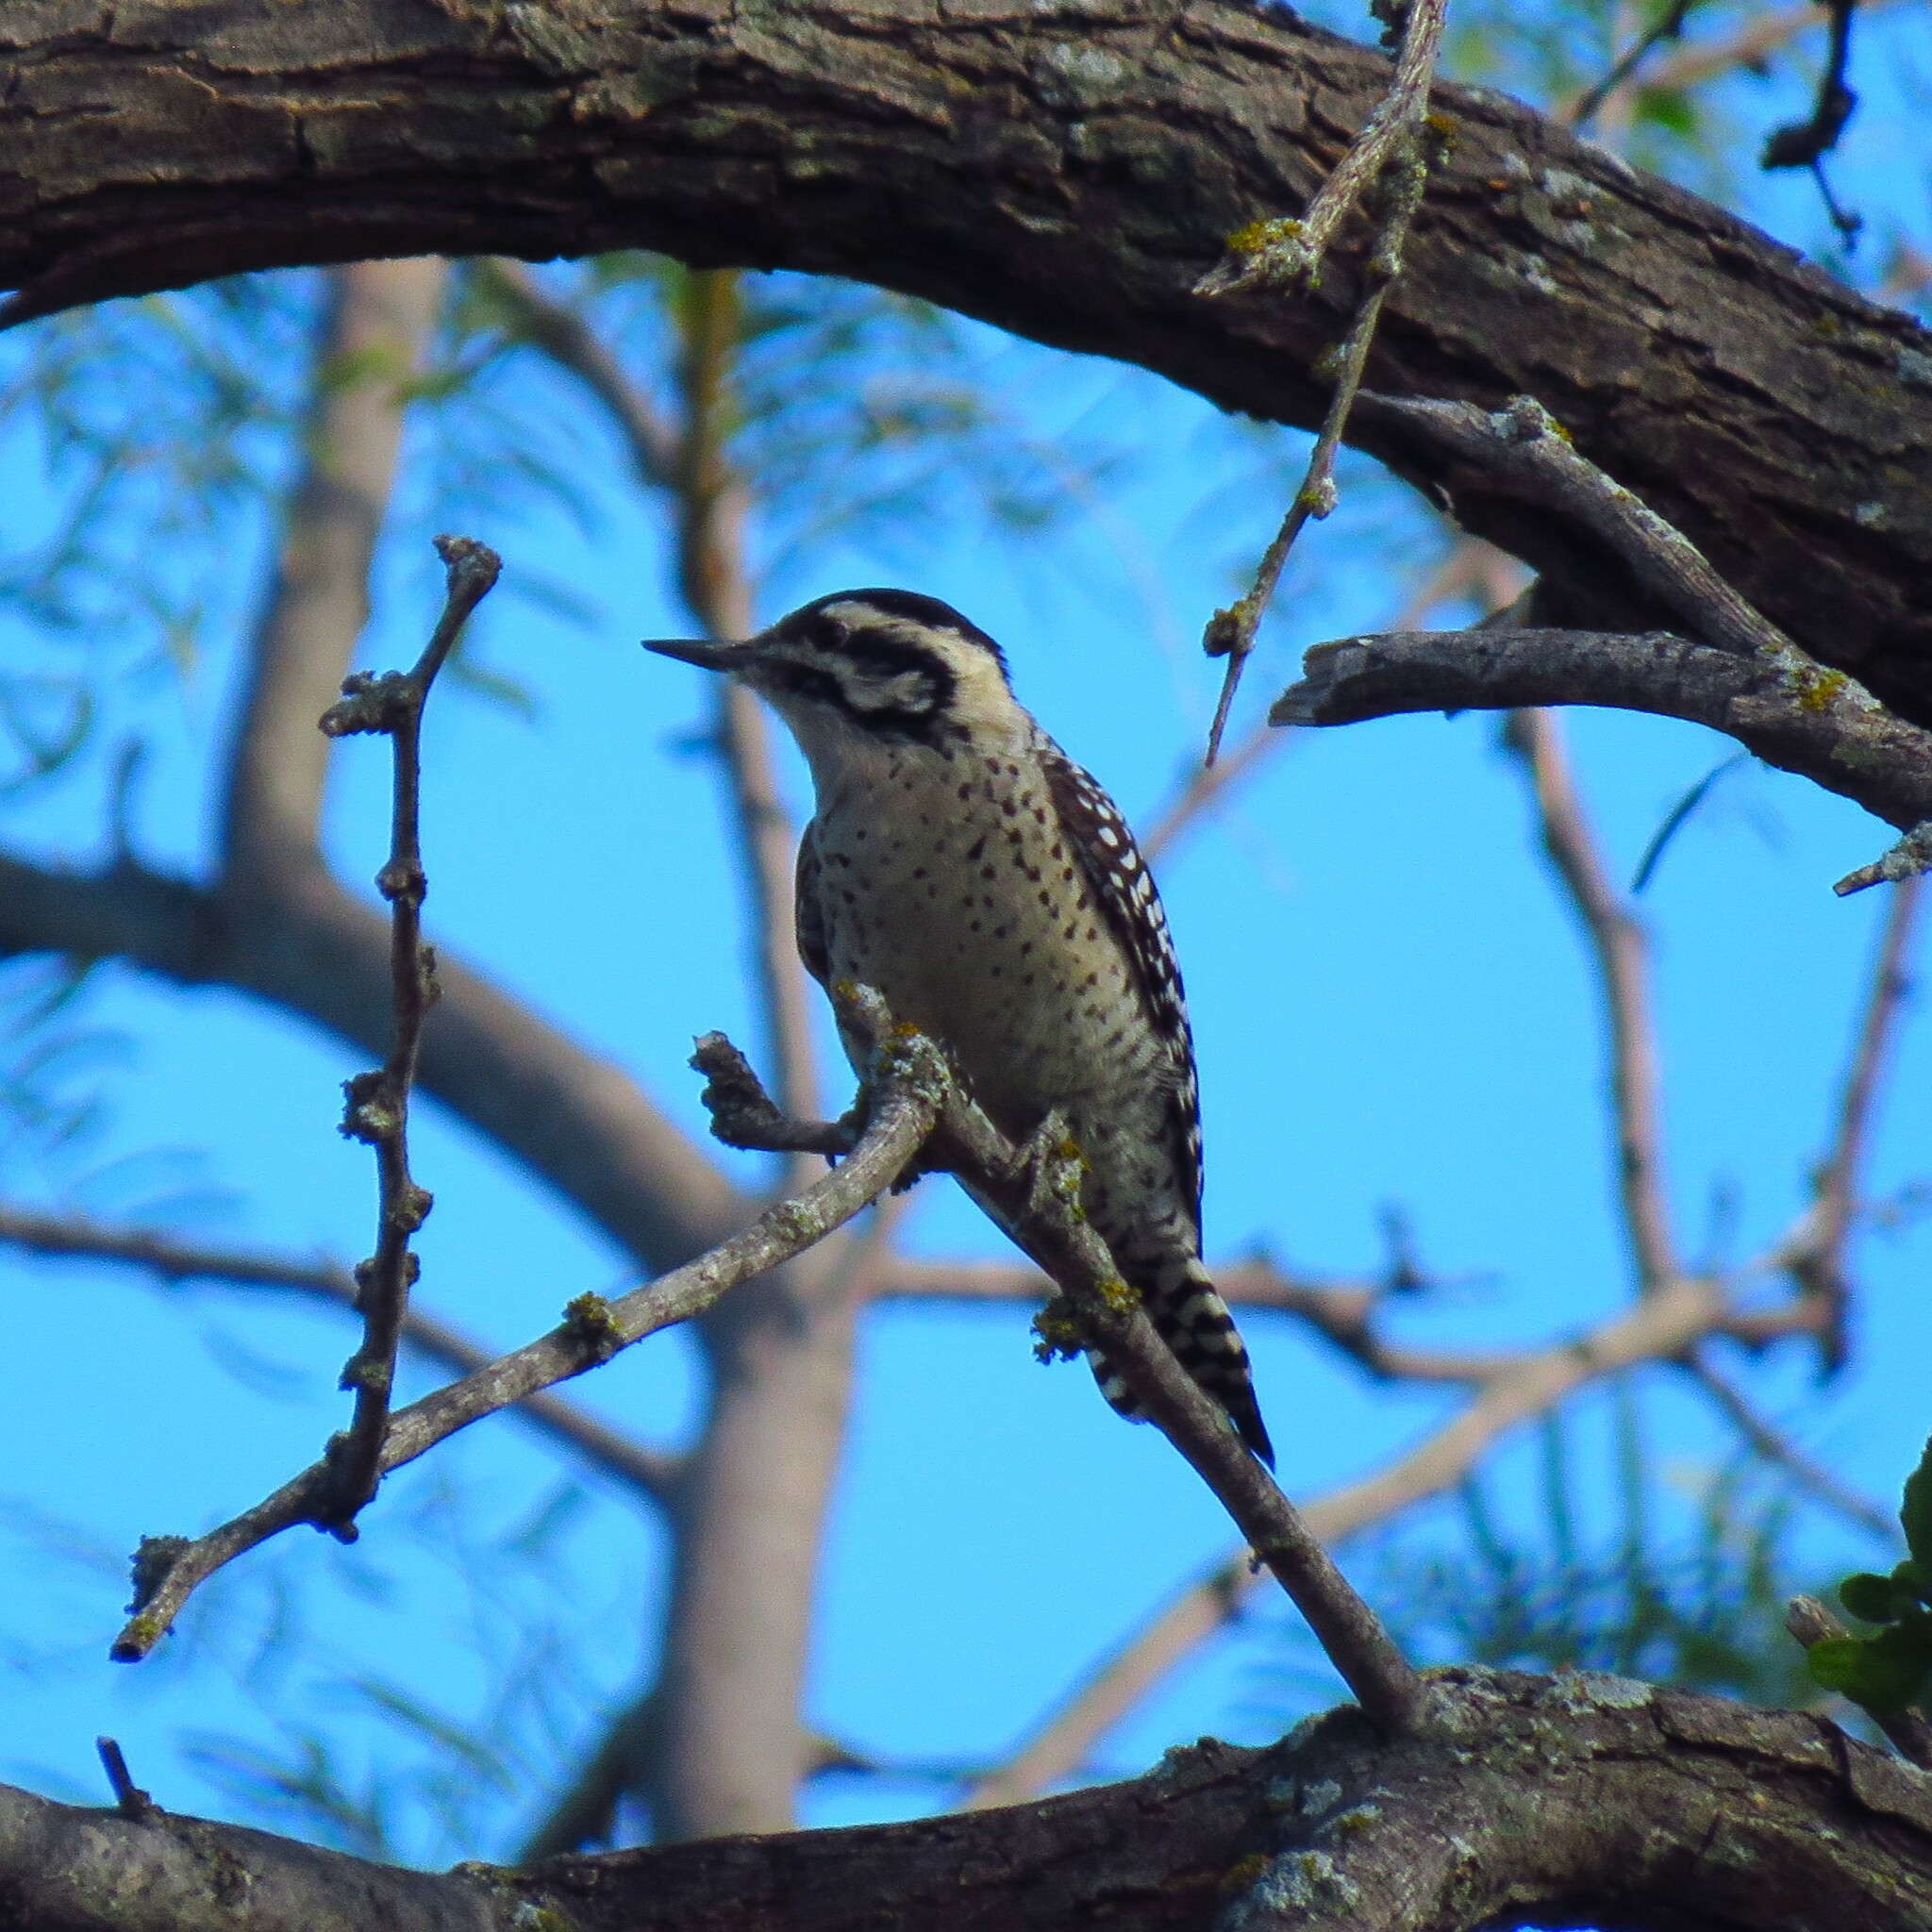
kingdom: Animalia
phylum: Chordata
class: Aves
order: Piciformes
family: Picidae
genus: Dryobates
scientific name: Dryobates scalaris
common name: Ladder-backed woodpecker
